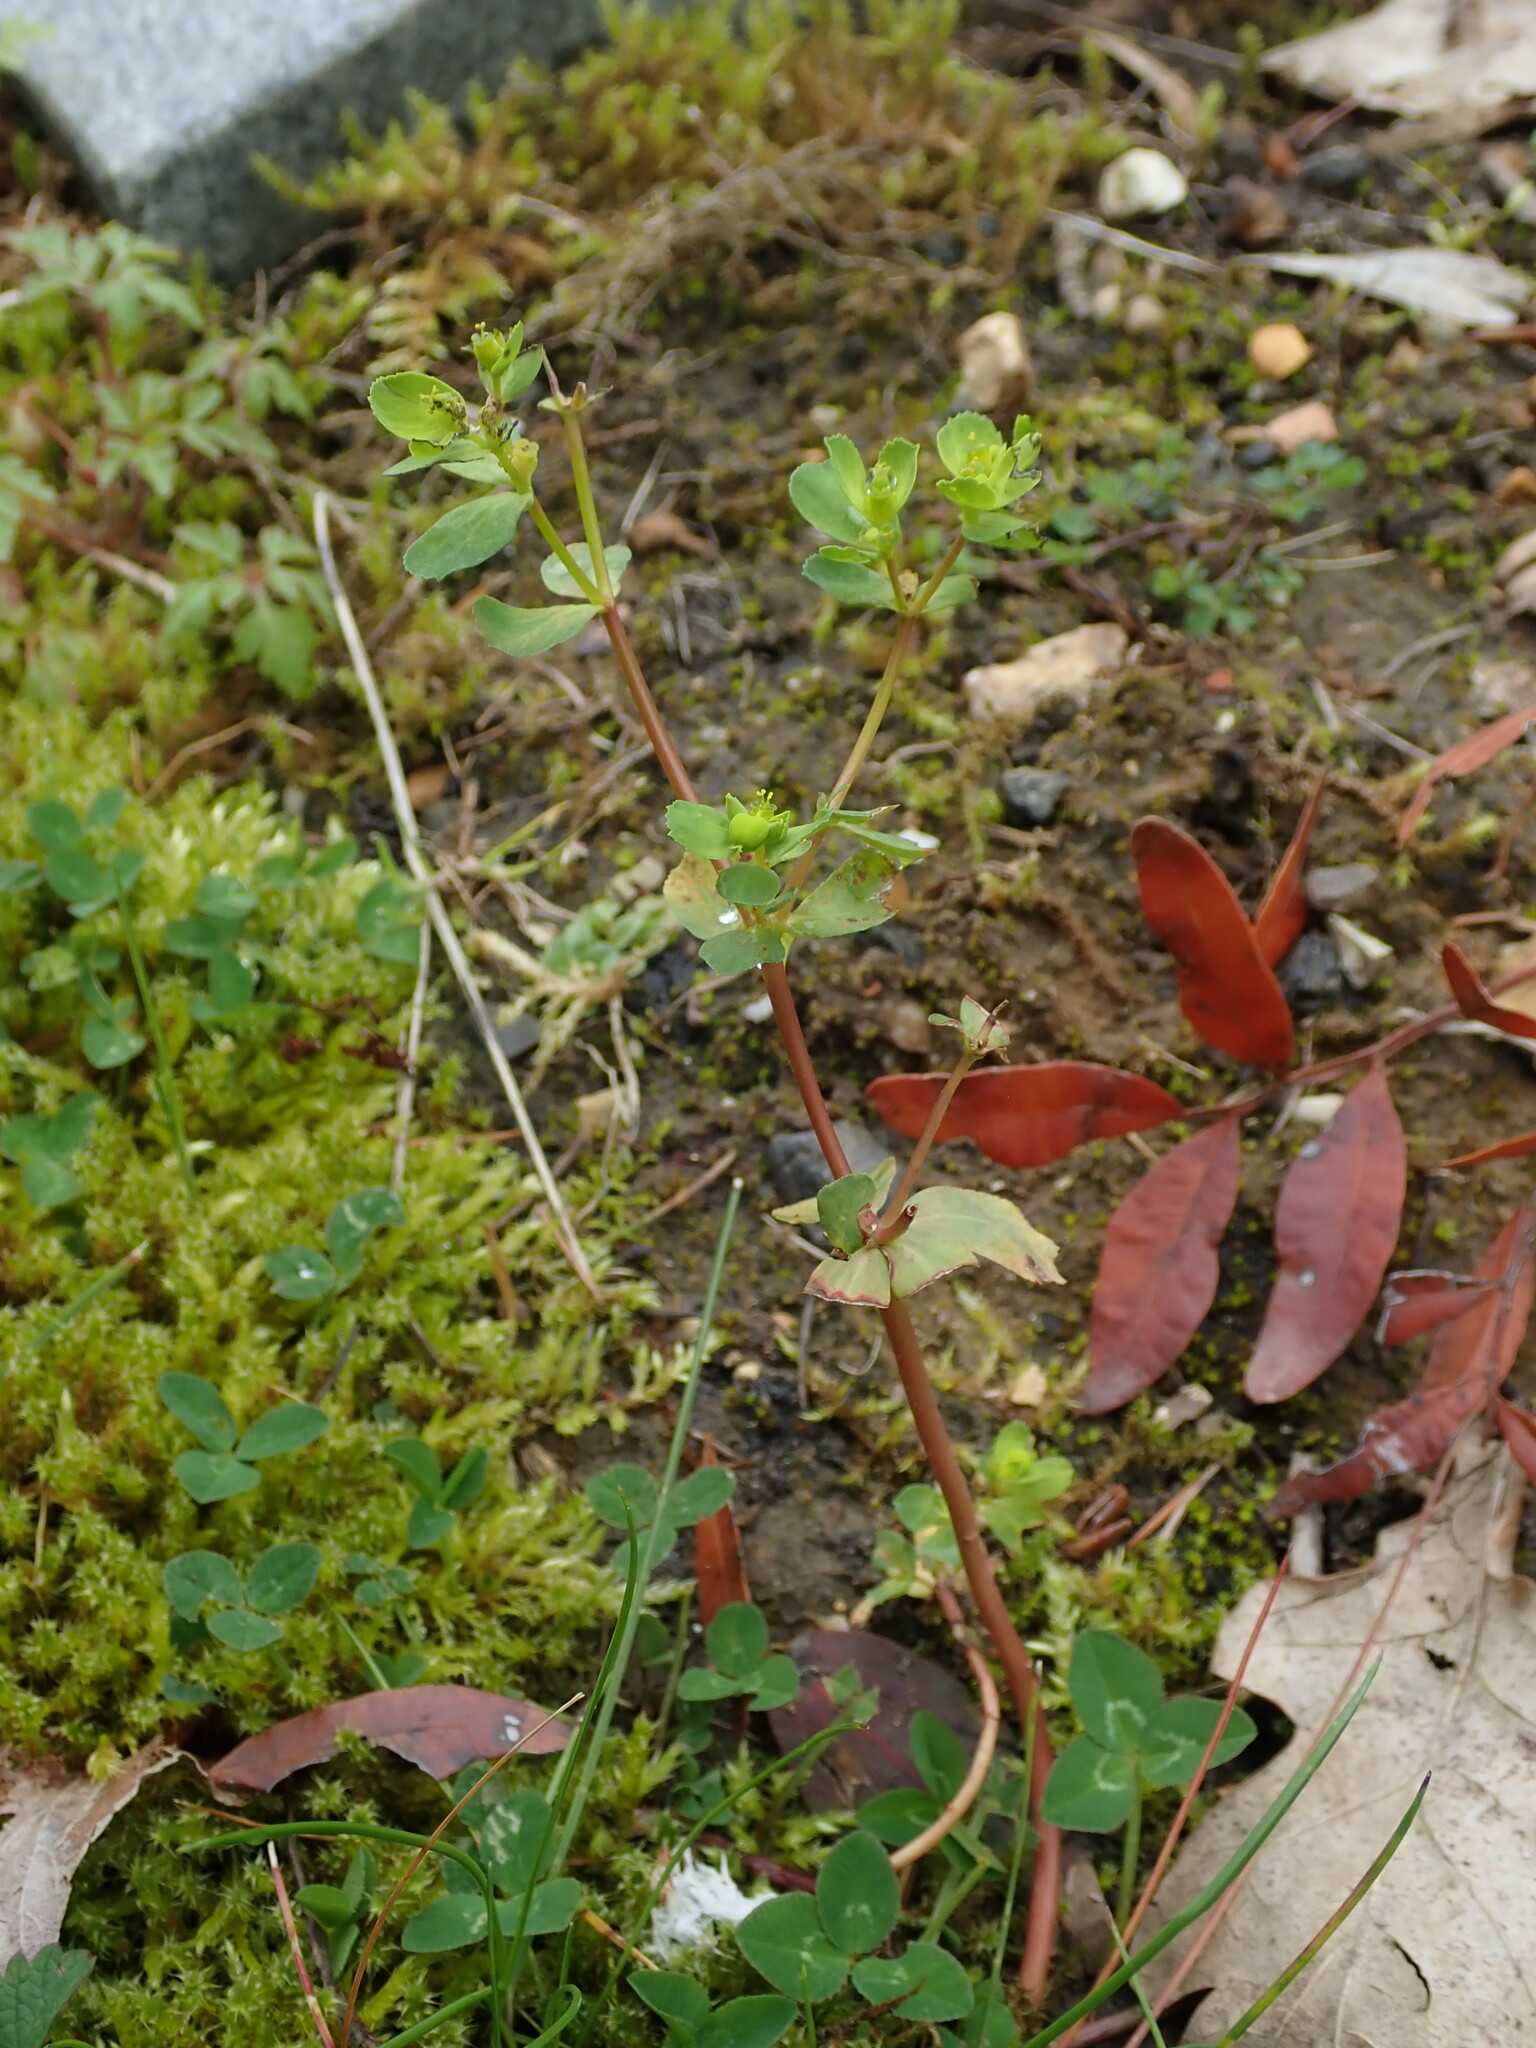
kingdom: Plantae
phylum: Tracheophyta
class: Magnoliopsida
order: Malpighiales
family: Euphorbiaceae
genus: Euphorbia
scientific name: Euphorbia helioscopia
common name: Sun spurge
